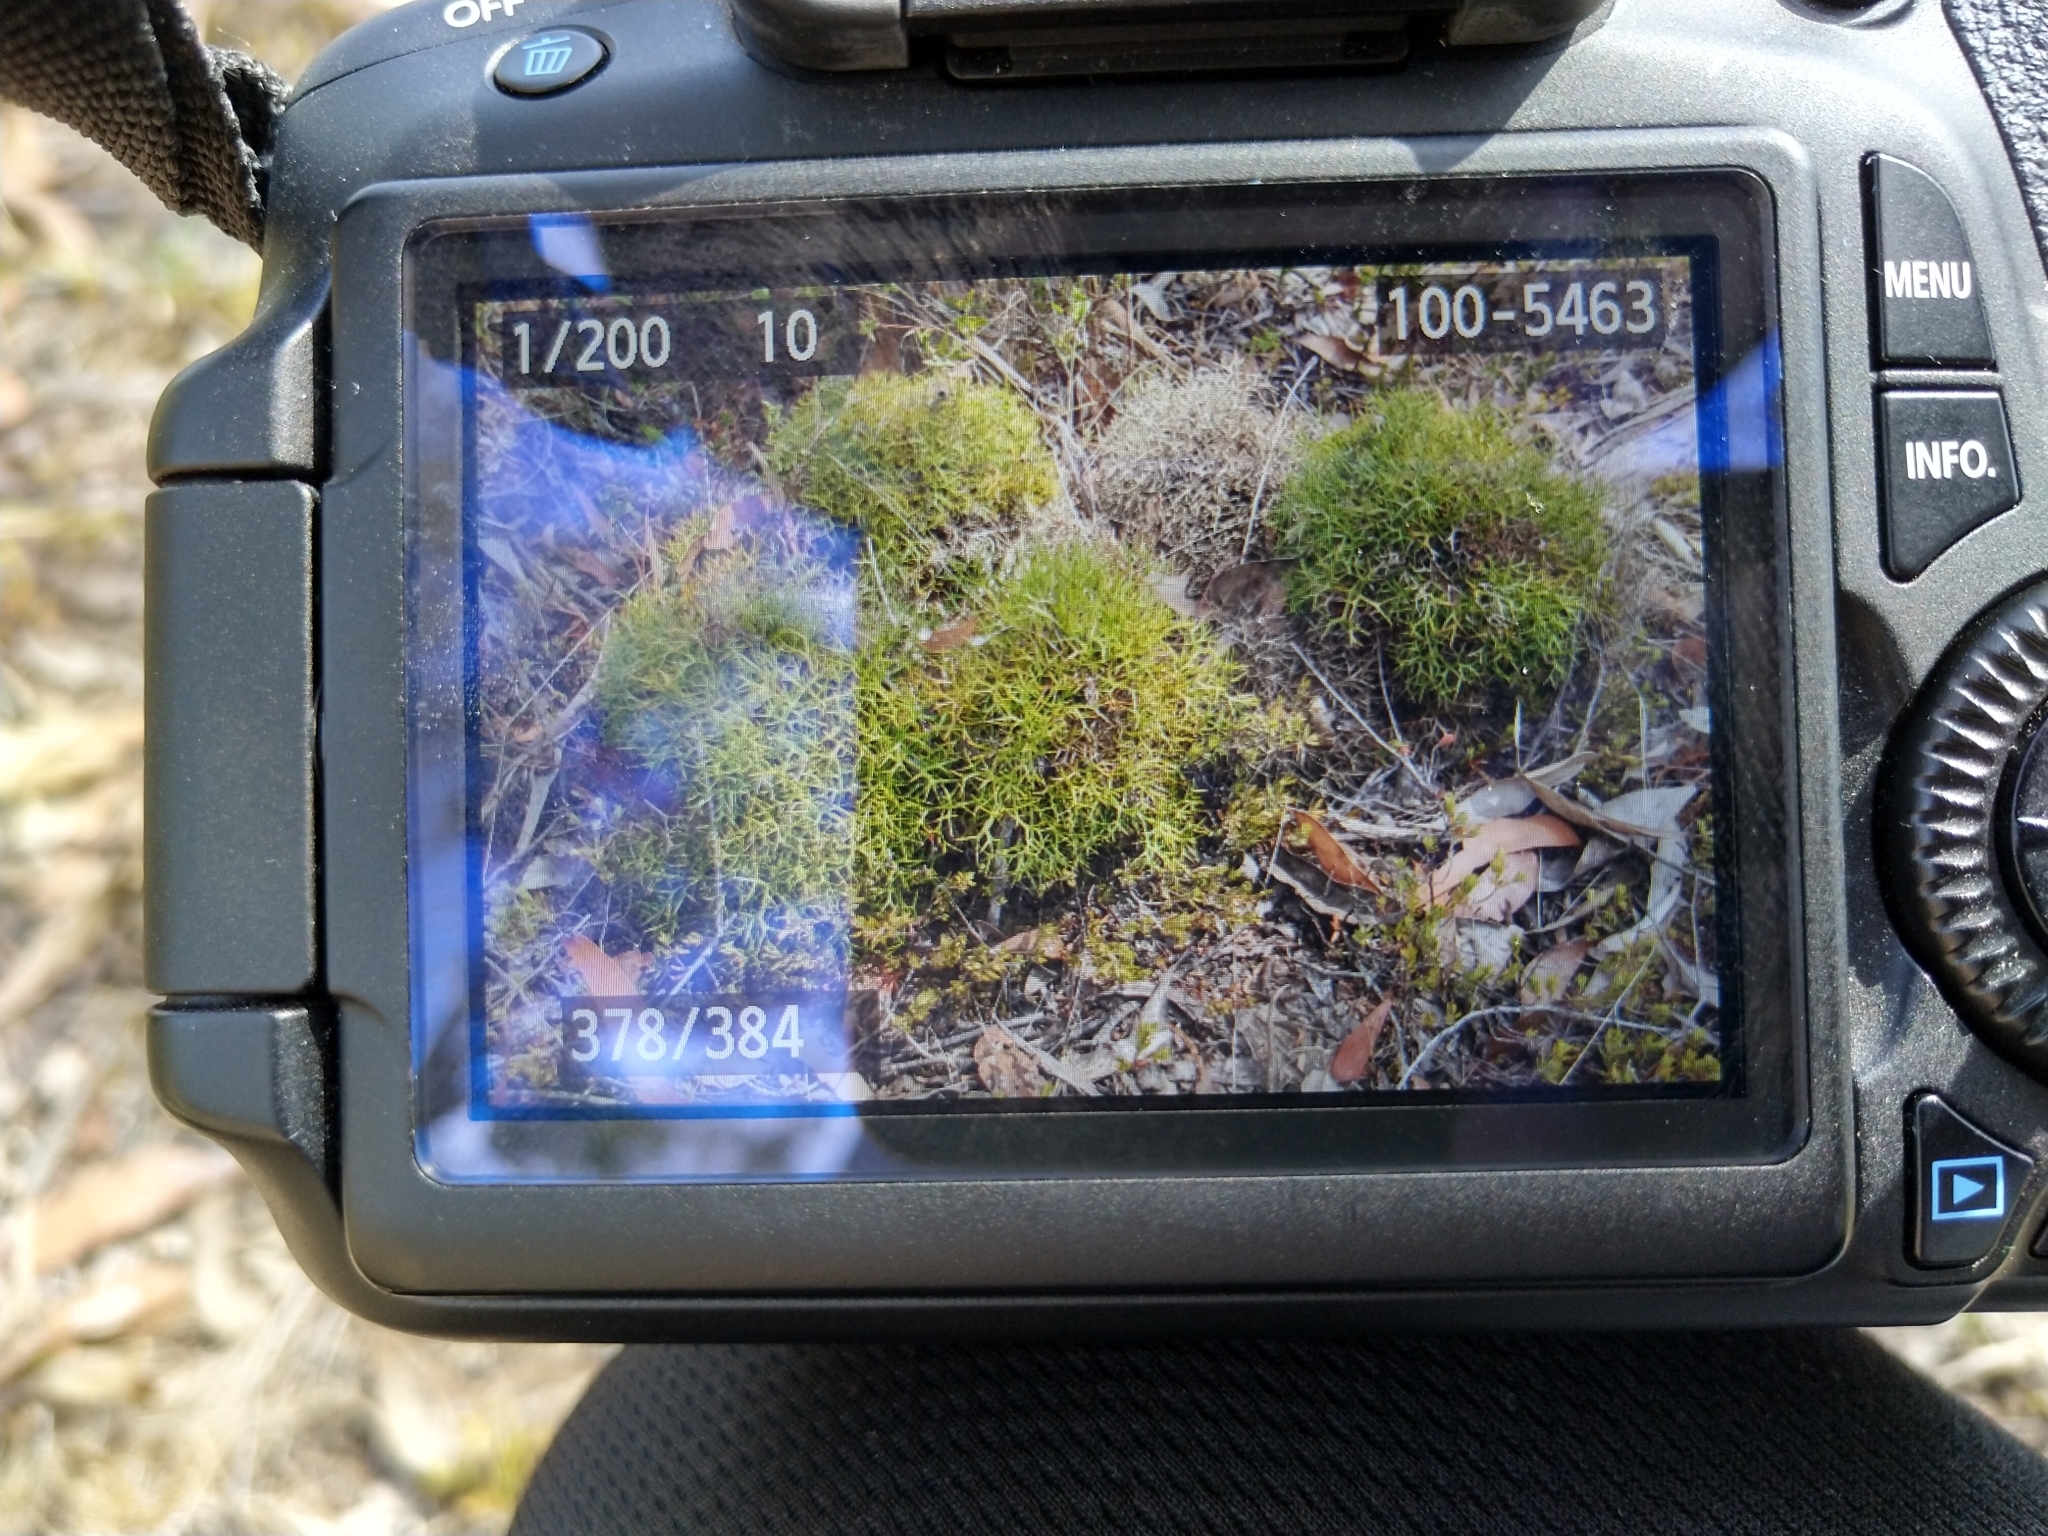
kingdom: Plantae
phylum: Tracheophyta
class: Magnoliopsida
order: Proteales
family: Proteaceae
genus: Isopogon
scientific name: Isopogon ceratophyllus
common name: Horny cone-bush
